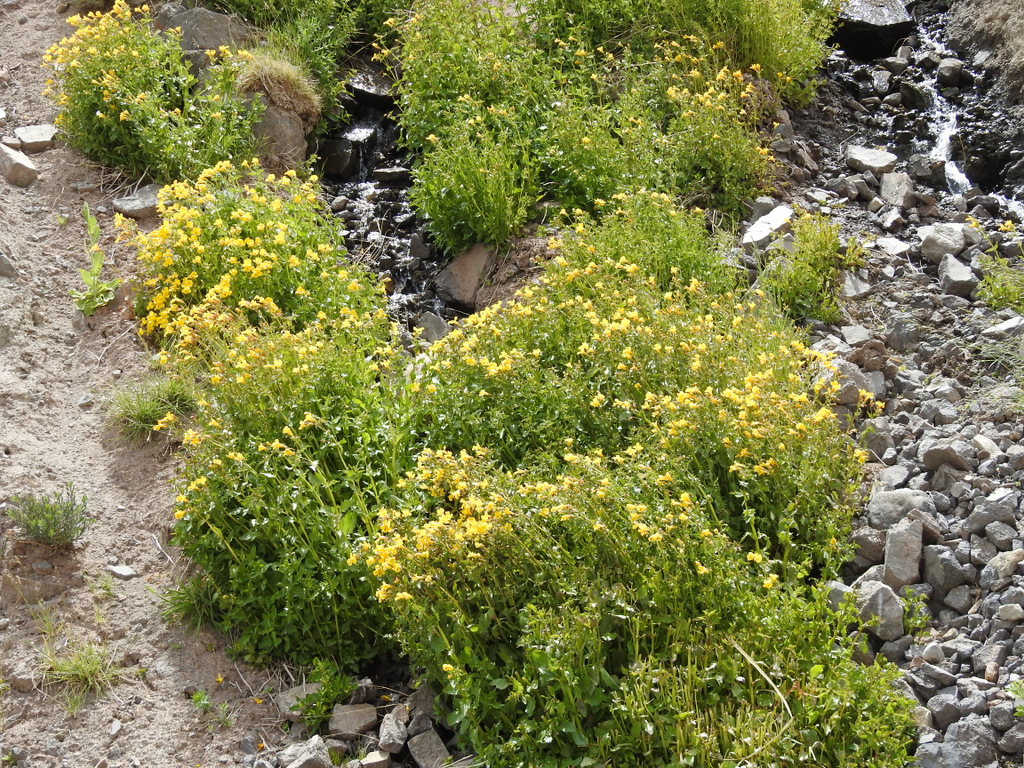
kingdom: Plantae
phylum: Tracheophyta
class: Magnoliopsida
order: Lamiales
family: Phrymaceae
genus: Erythranthe
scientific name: Erythranthe lutea
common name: Yellow monkey-flower
